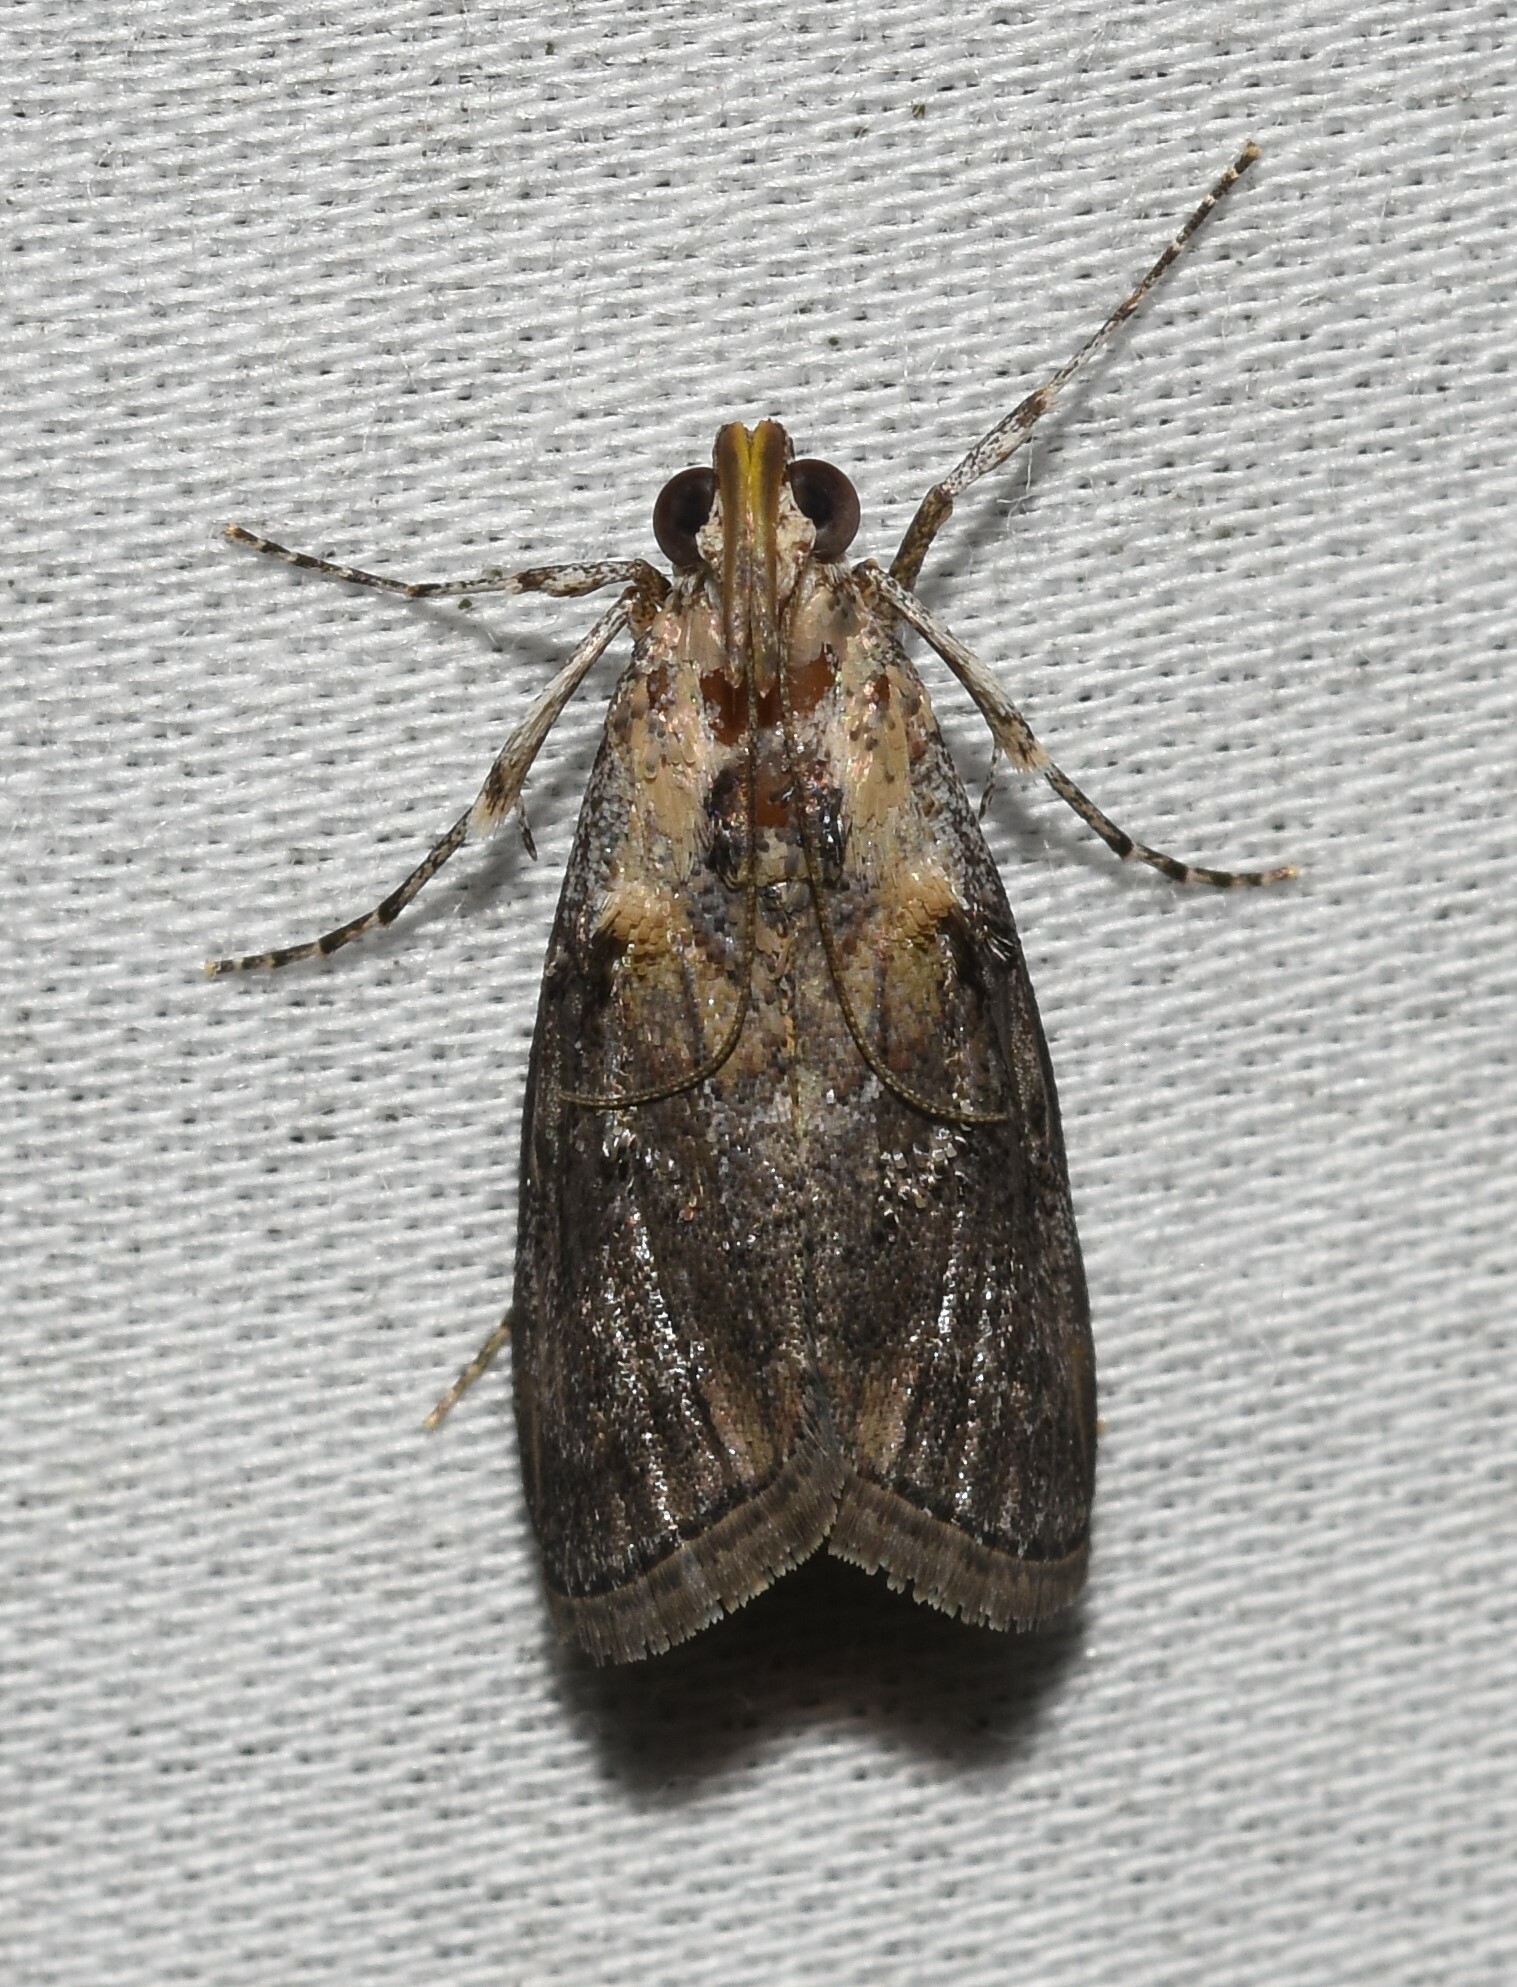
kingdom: Animalia
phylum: Arthropoda
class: Insecta
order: Lepidoptera
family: Pyralidae
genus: Pococera
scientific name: Pococera expandens
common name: Striped oak webworm moth
